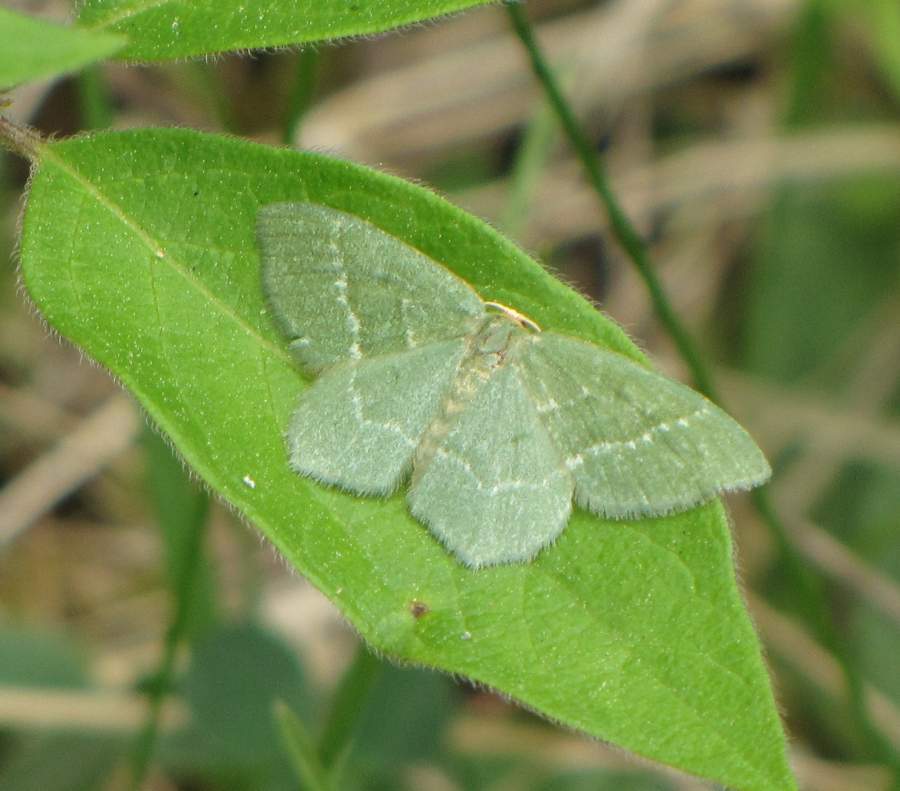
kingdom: Animalia
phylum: Arthropoda
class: Insecta
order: Lepidoptera
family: Geometridae
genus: Thalera
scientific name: Thalera pistasciaria
